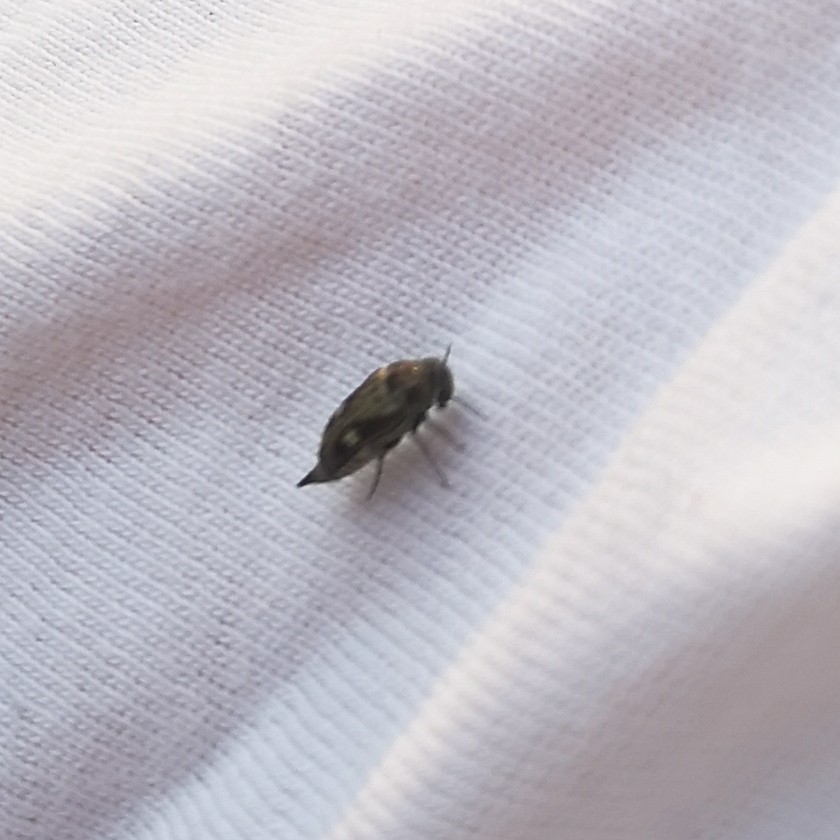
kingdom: Animalia
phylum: Arthropoda
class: Insecta
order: Coleoptera
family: Mordellidae
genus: Tomoxia
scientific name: Tomoxia bucephala
